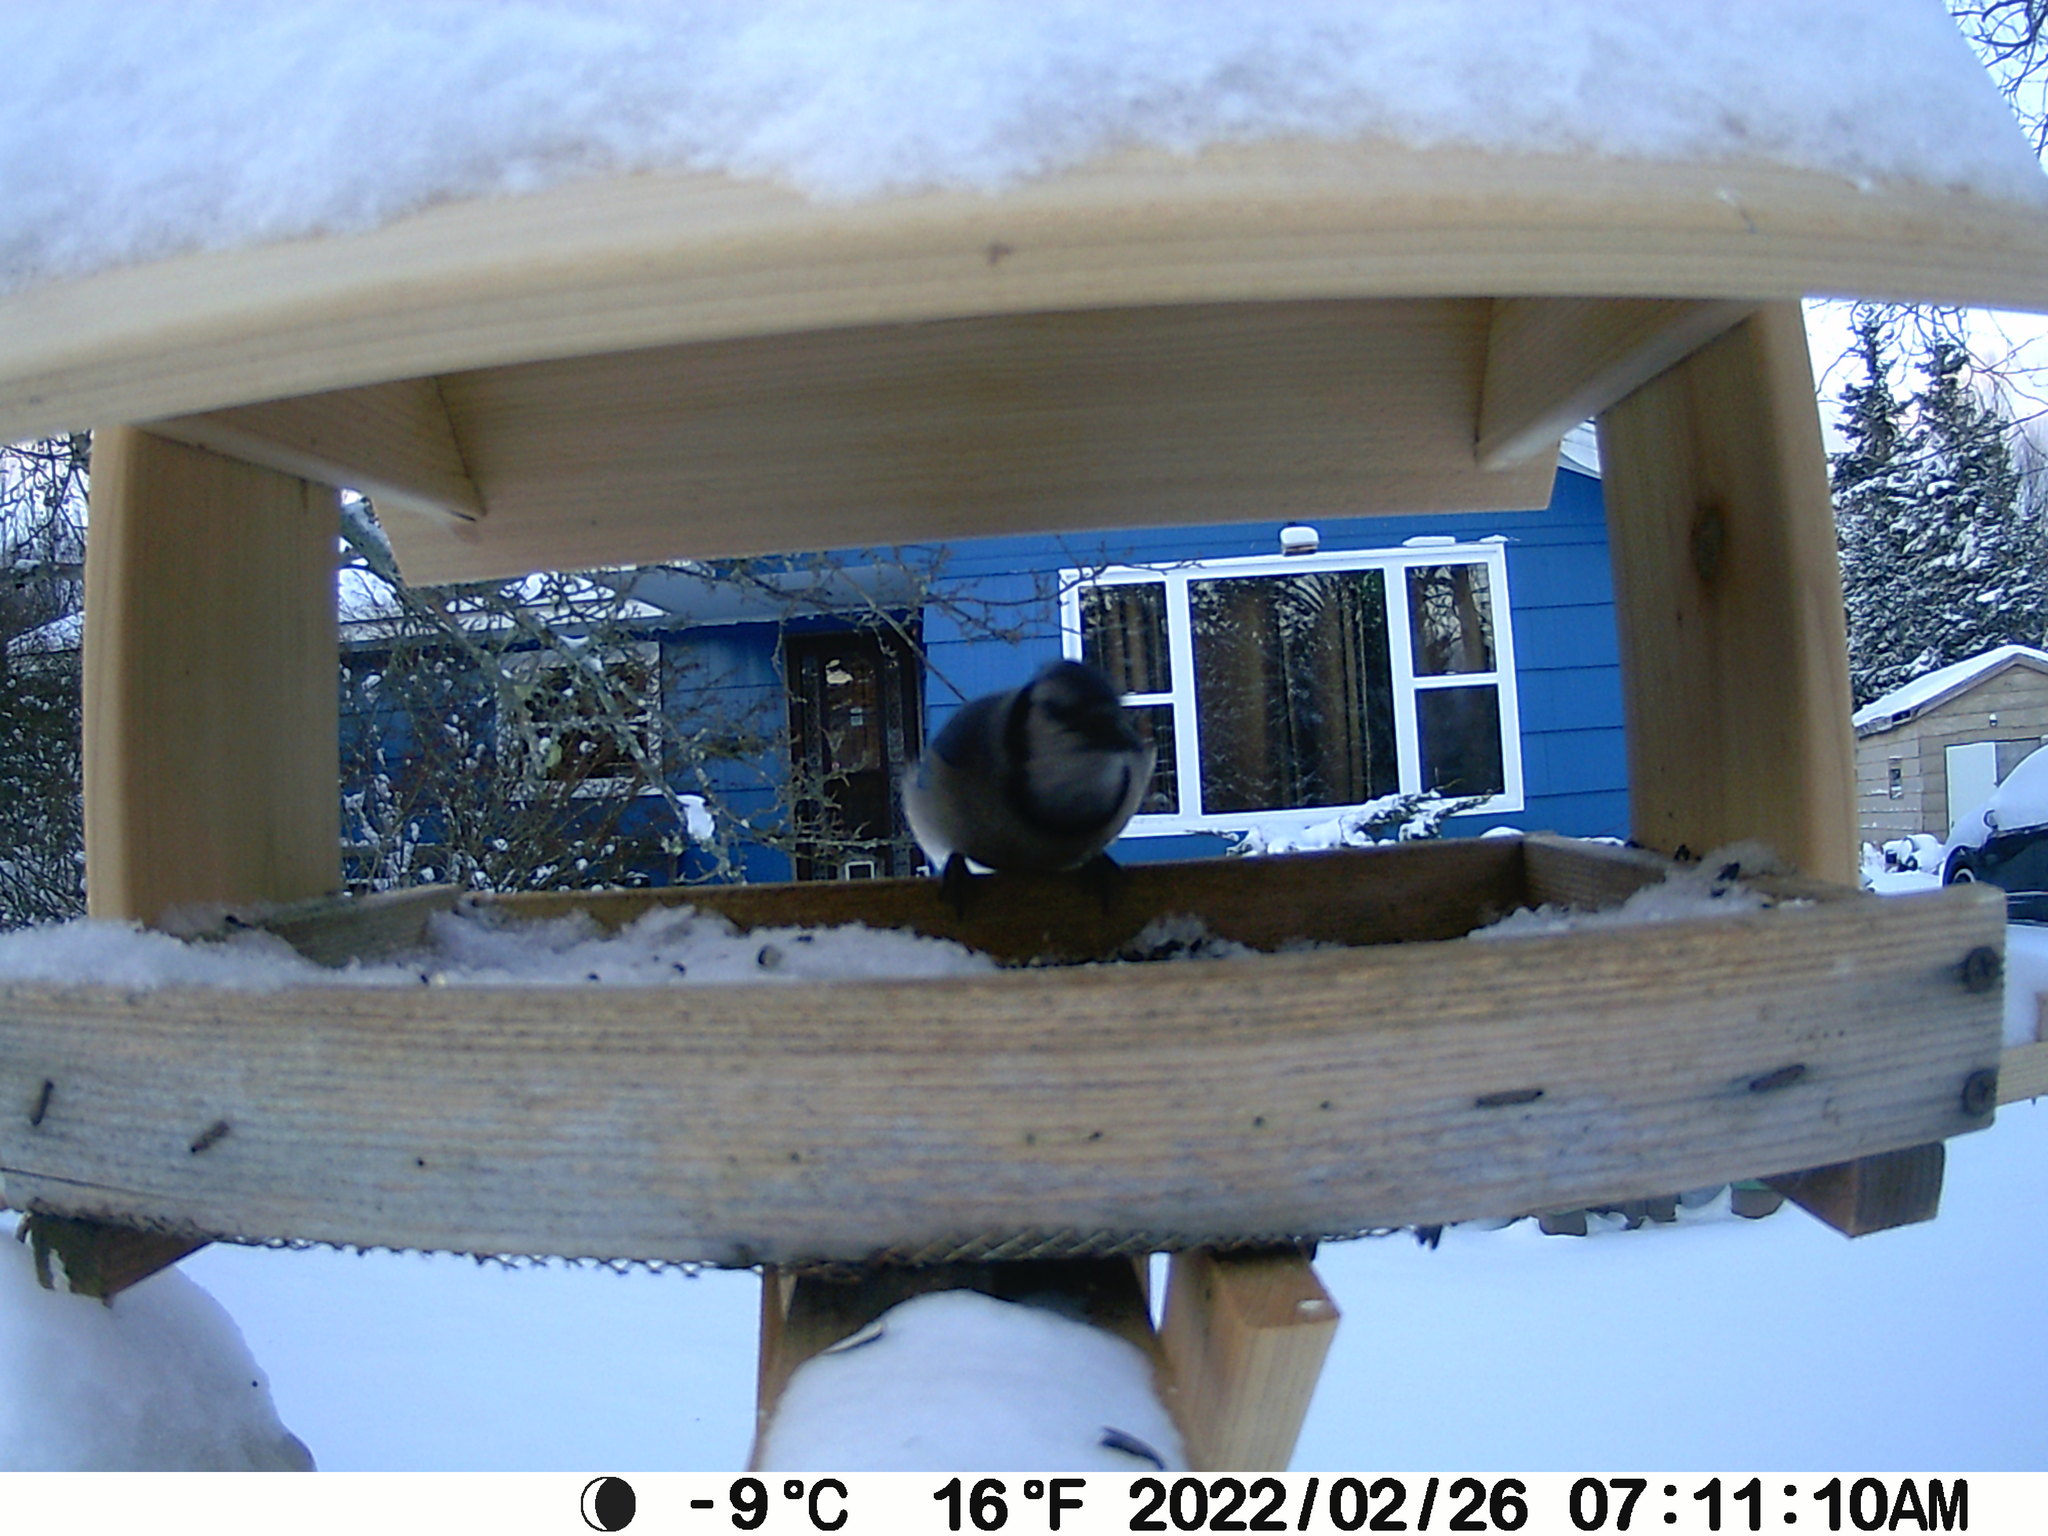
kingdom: Animalia
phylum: Chordata
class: Aves
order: Passeriformes
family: Corvidae
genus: Cyanocitta
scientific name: Cyanocitta cristata
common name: Blue jay
